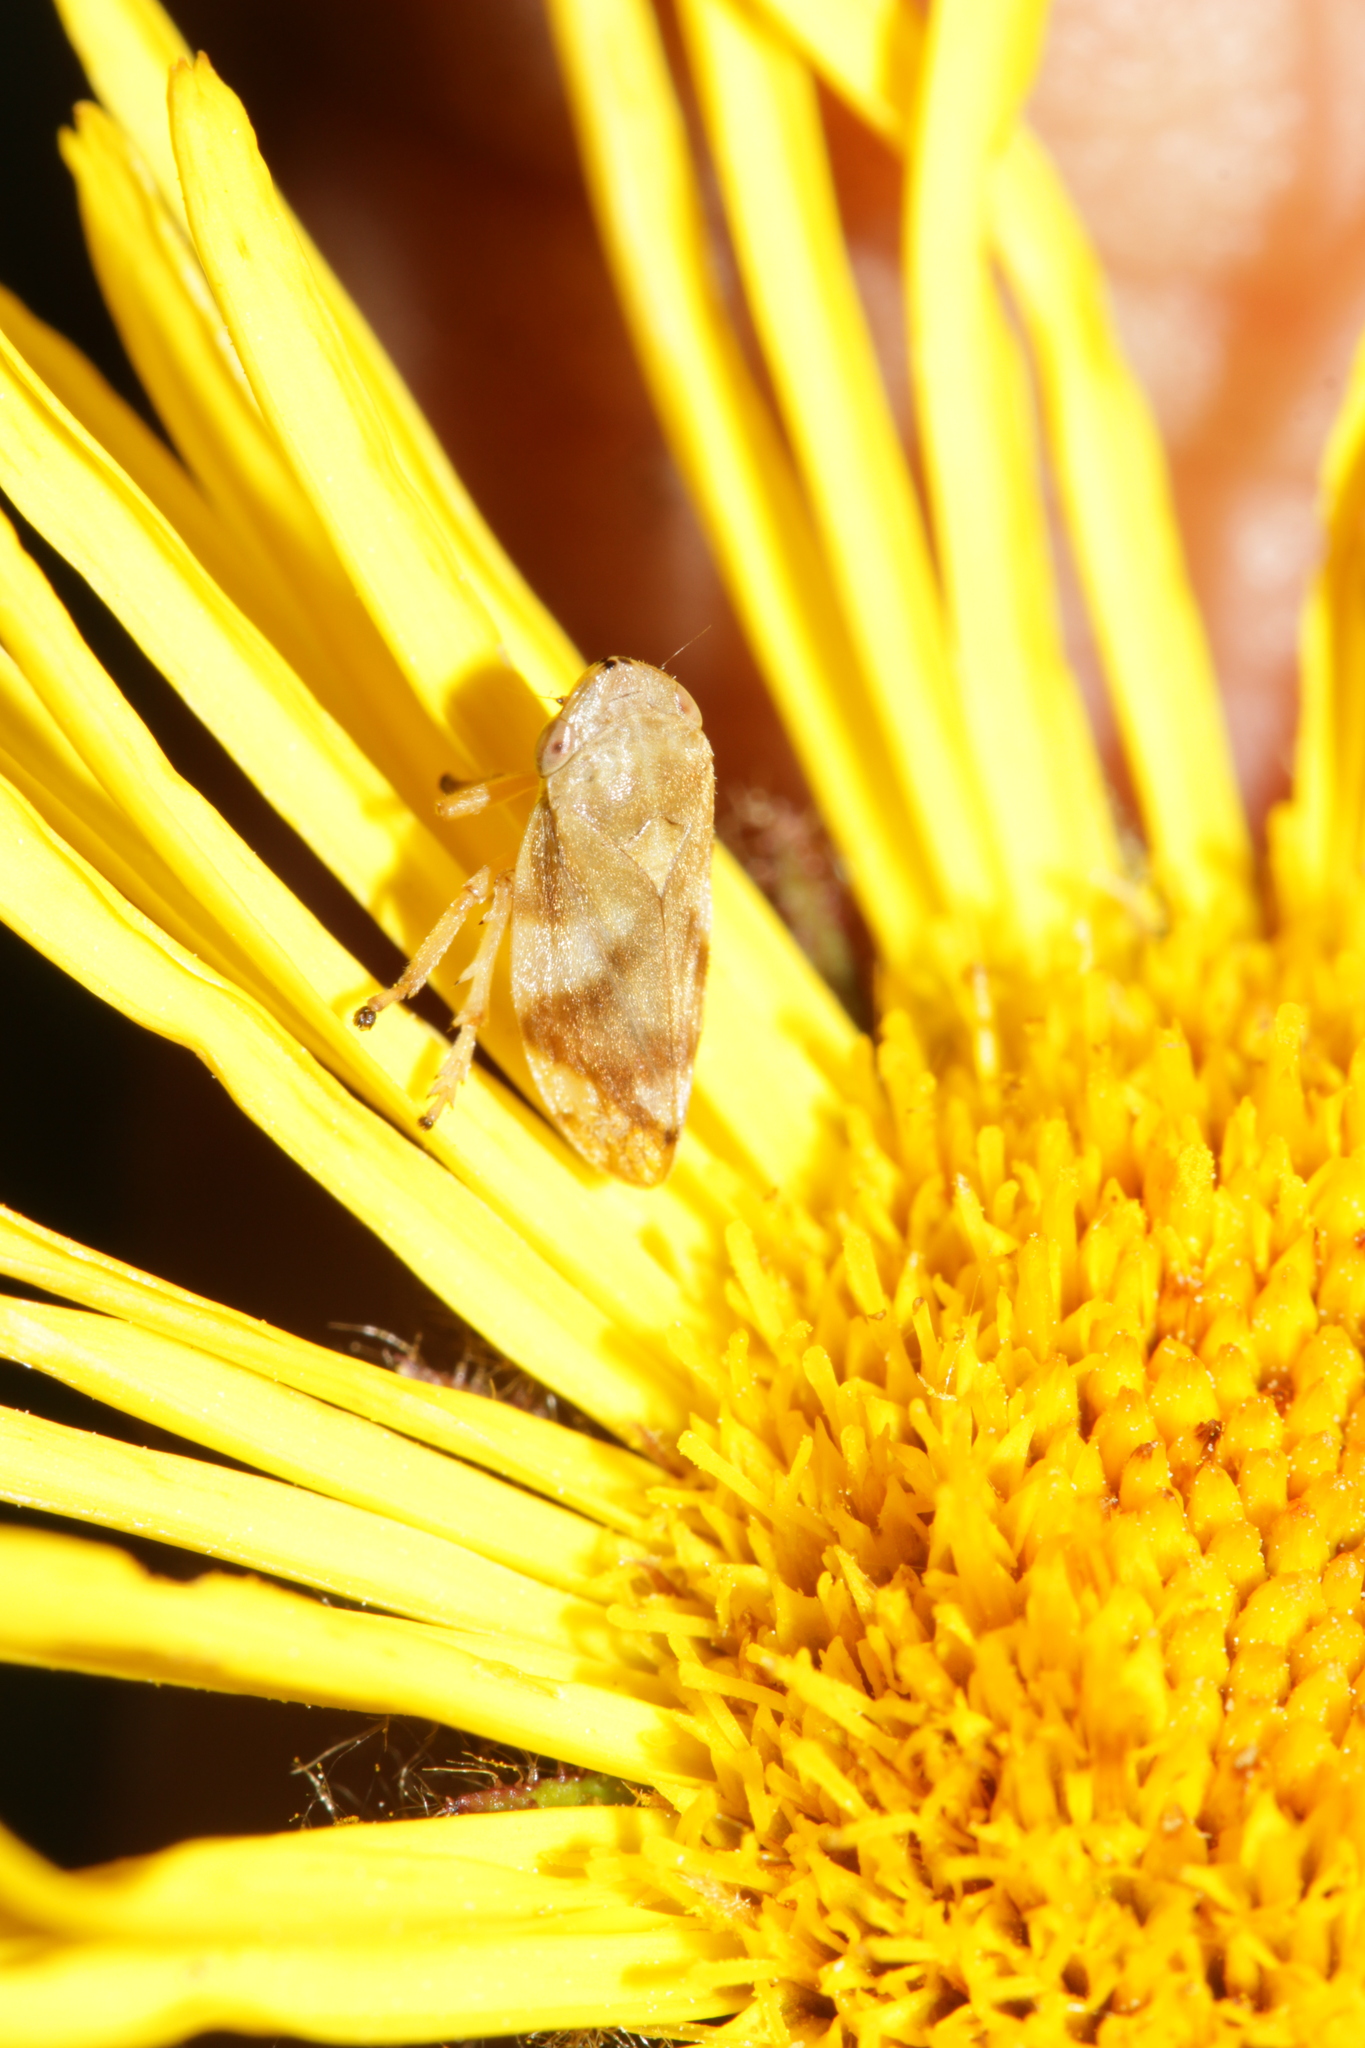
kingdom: Animalia
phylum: Arthropoda
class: Insecta
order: Hemiptera
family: Aphrophoridae
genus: Philaenus
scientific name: Philaenus spumarius
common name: Meadow spittlebug
